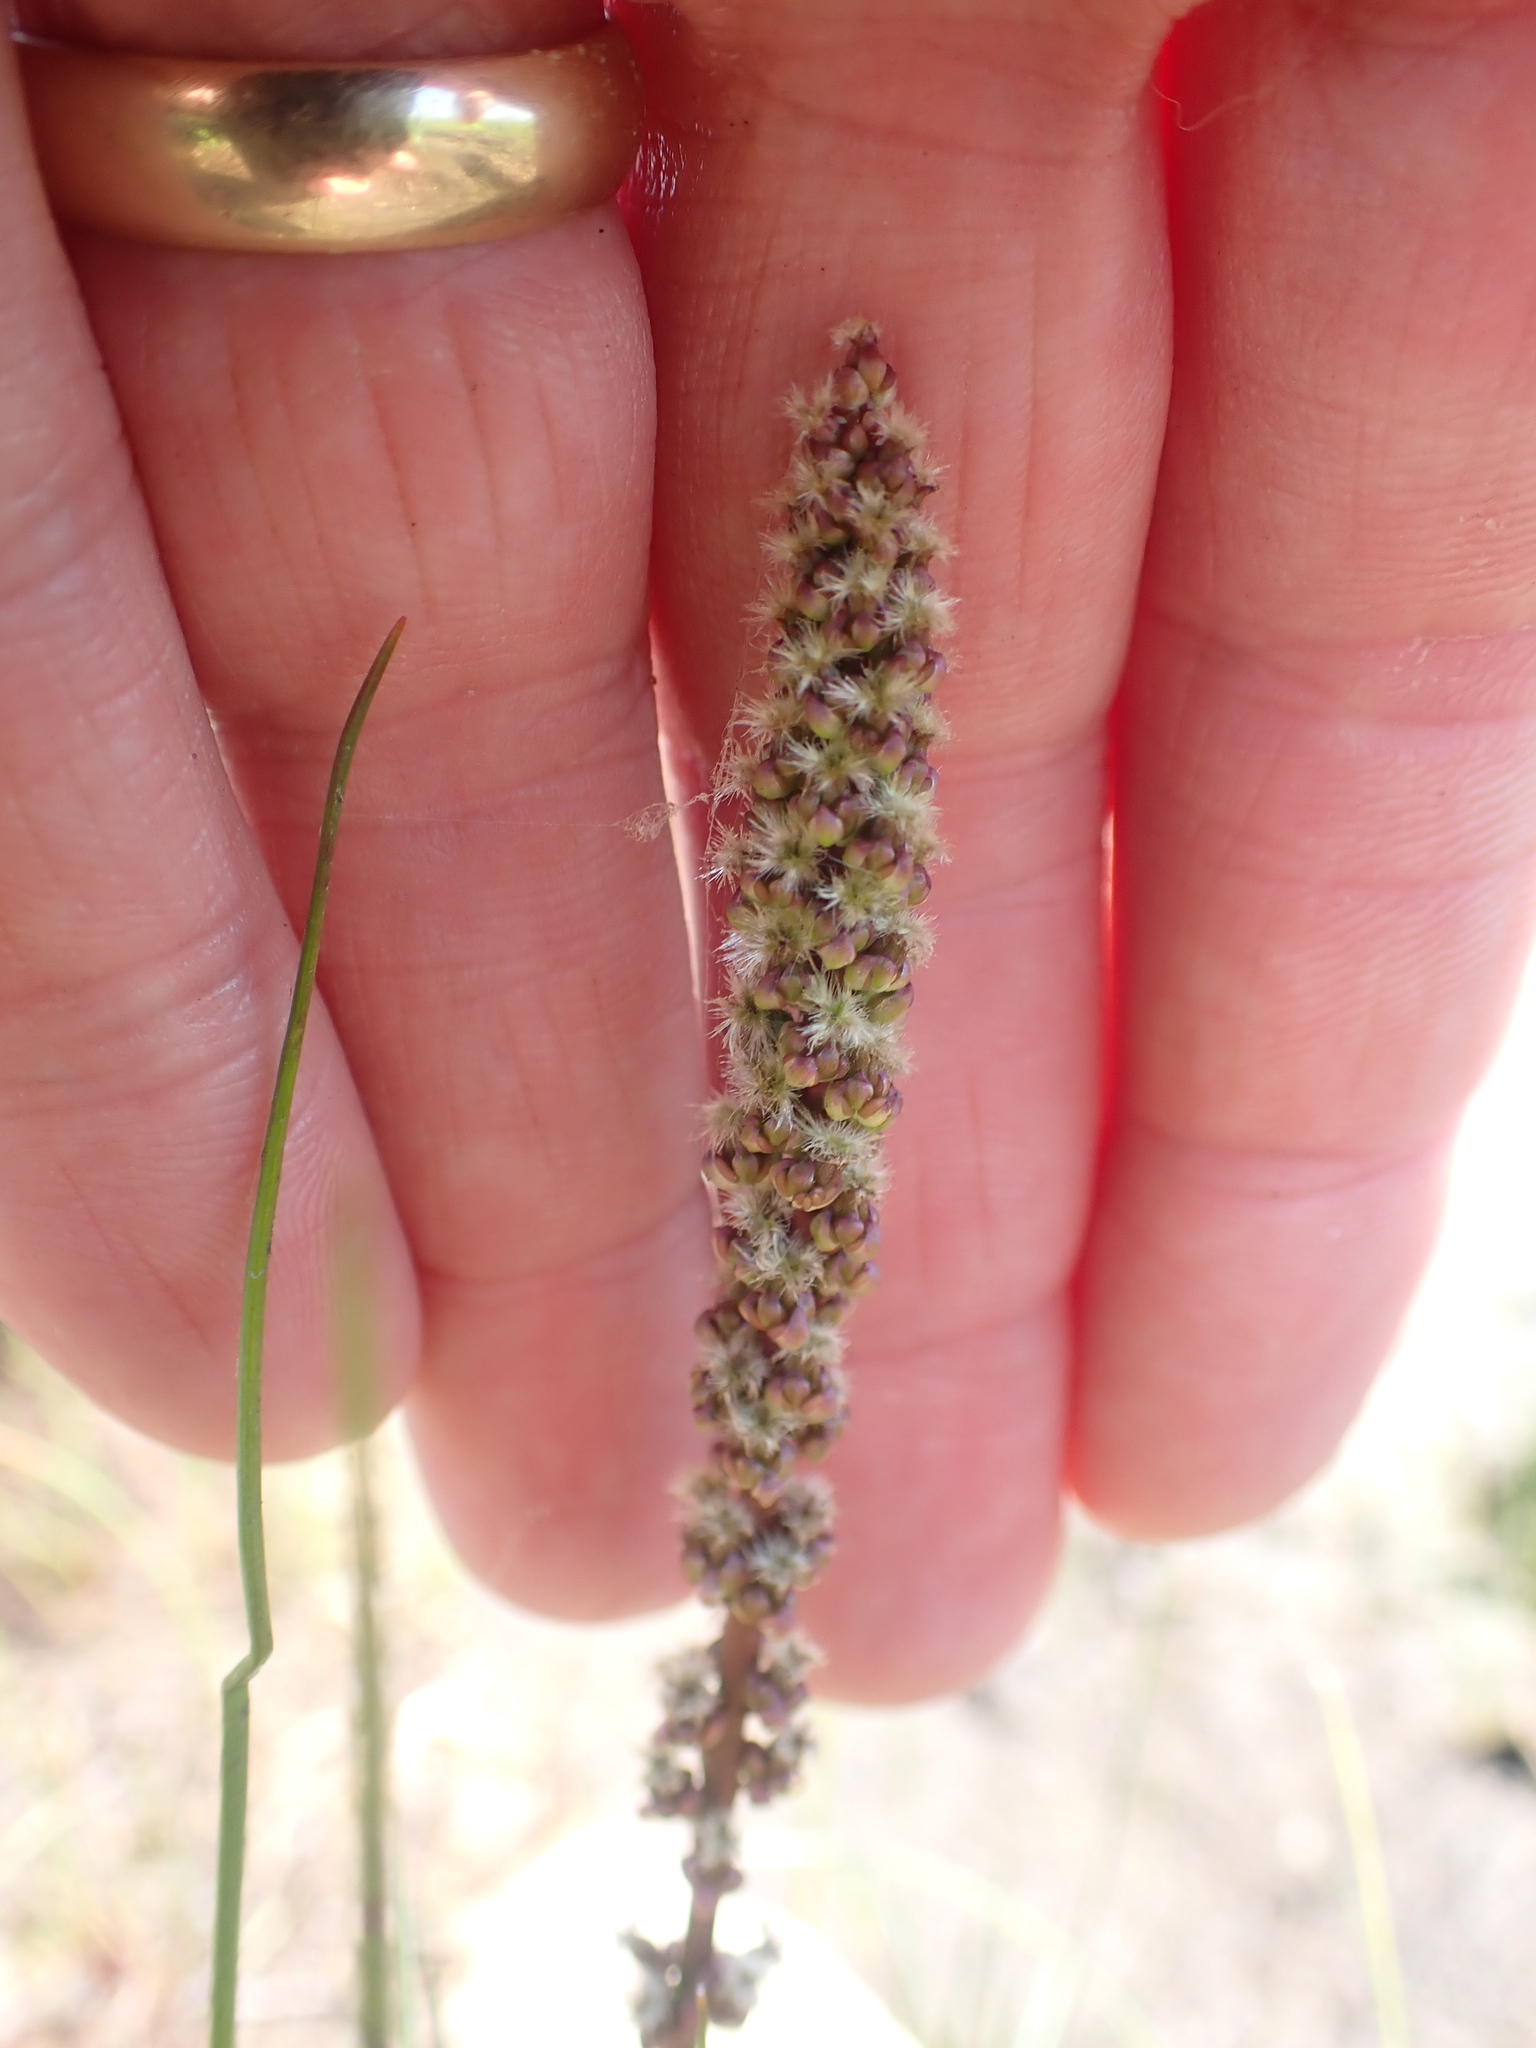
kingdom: Plantae
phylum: Tracheophyta
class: Liliopsida
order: Alismatales
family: Juncaginaceae
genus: Triglochin
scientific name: Triglochin maritima
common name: Sea arrowgrass
